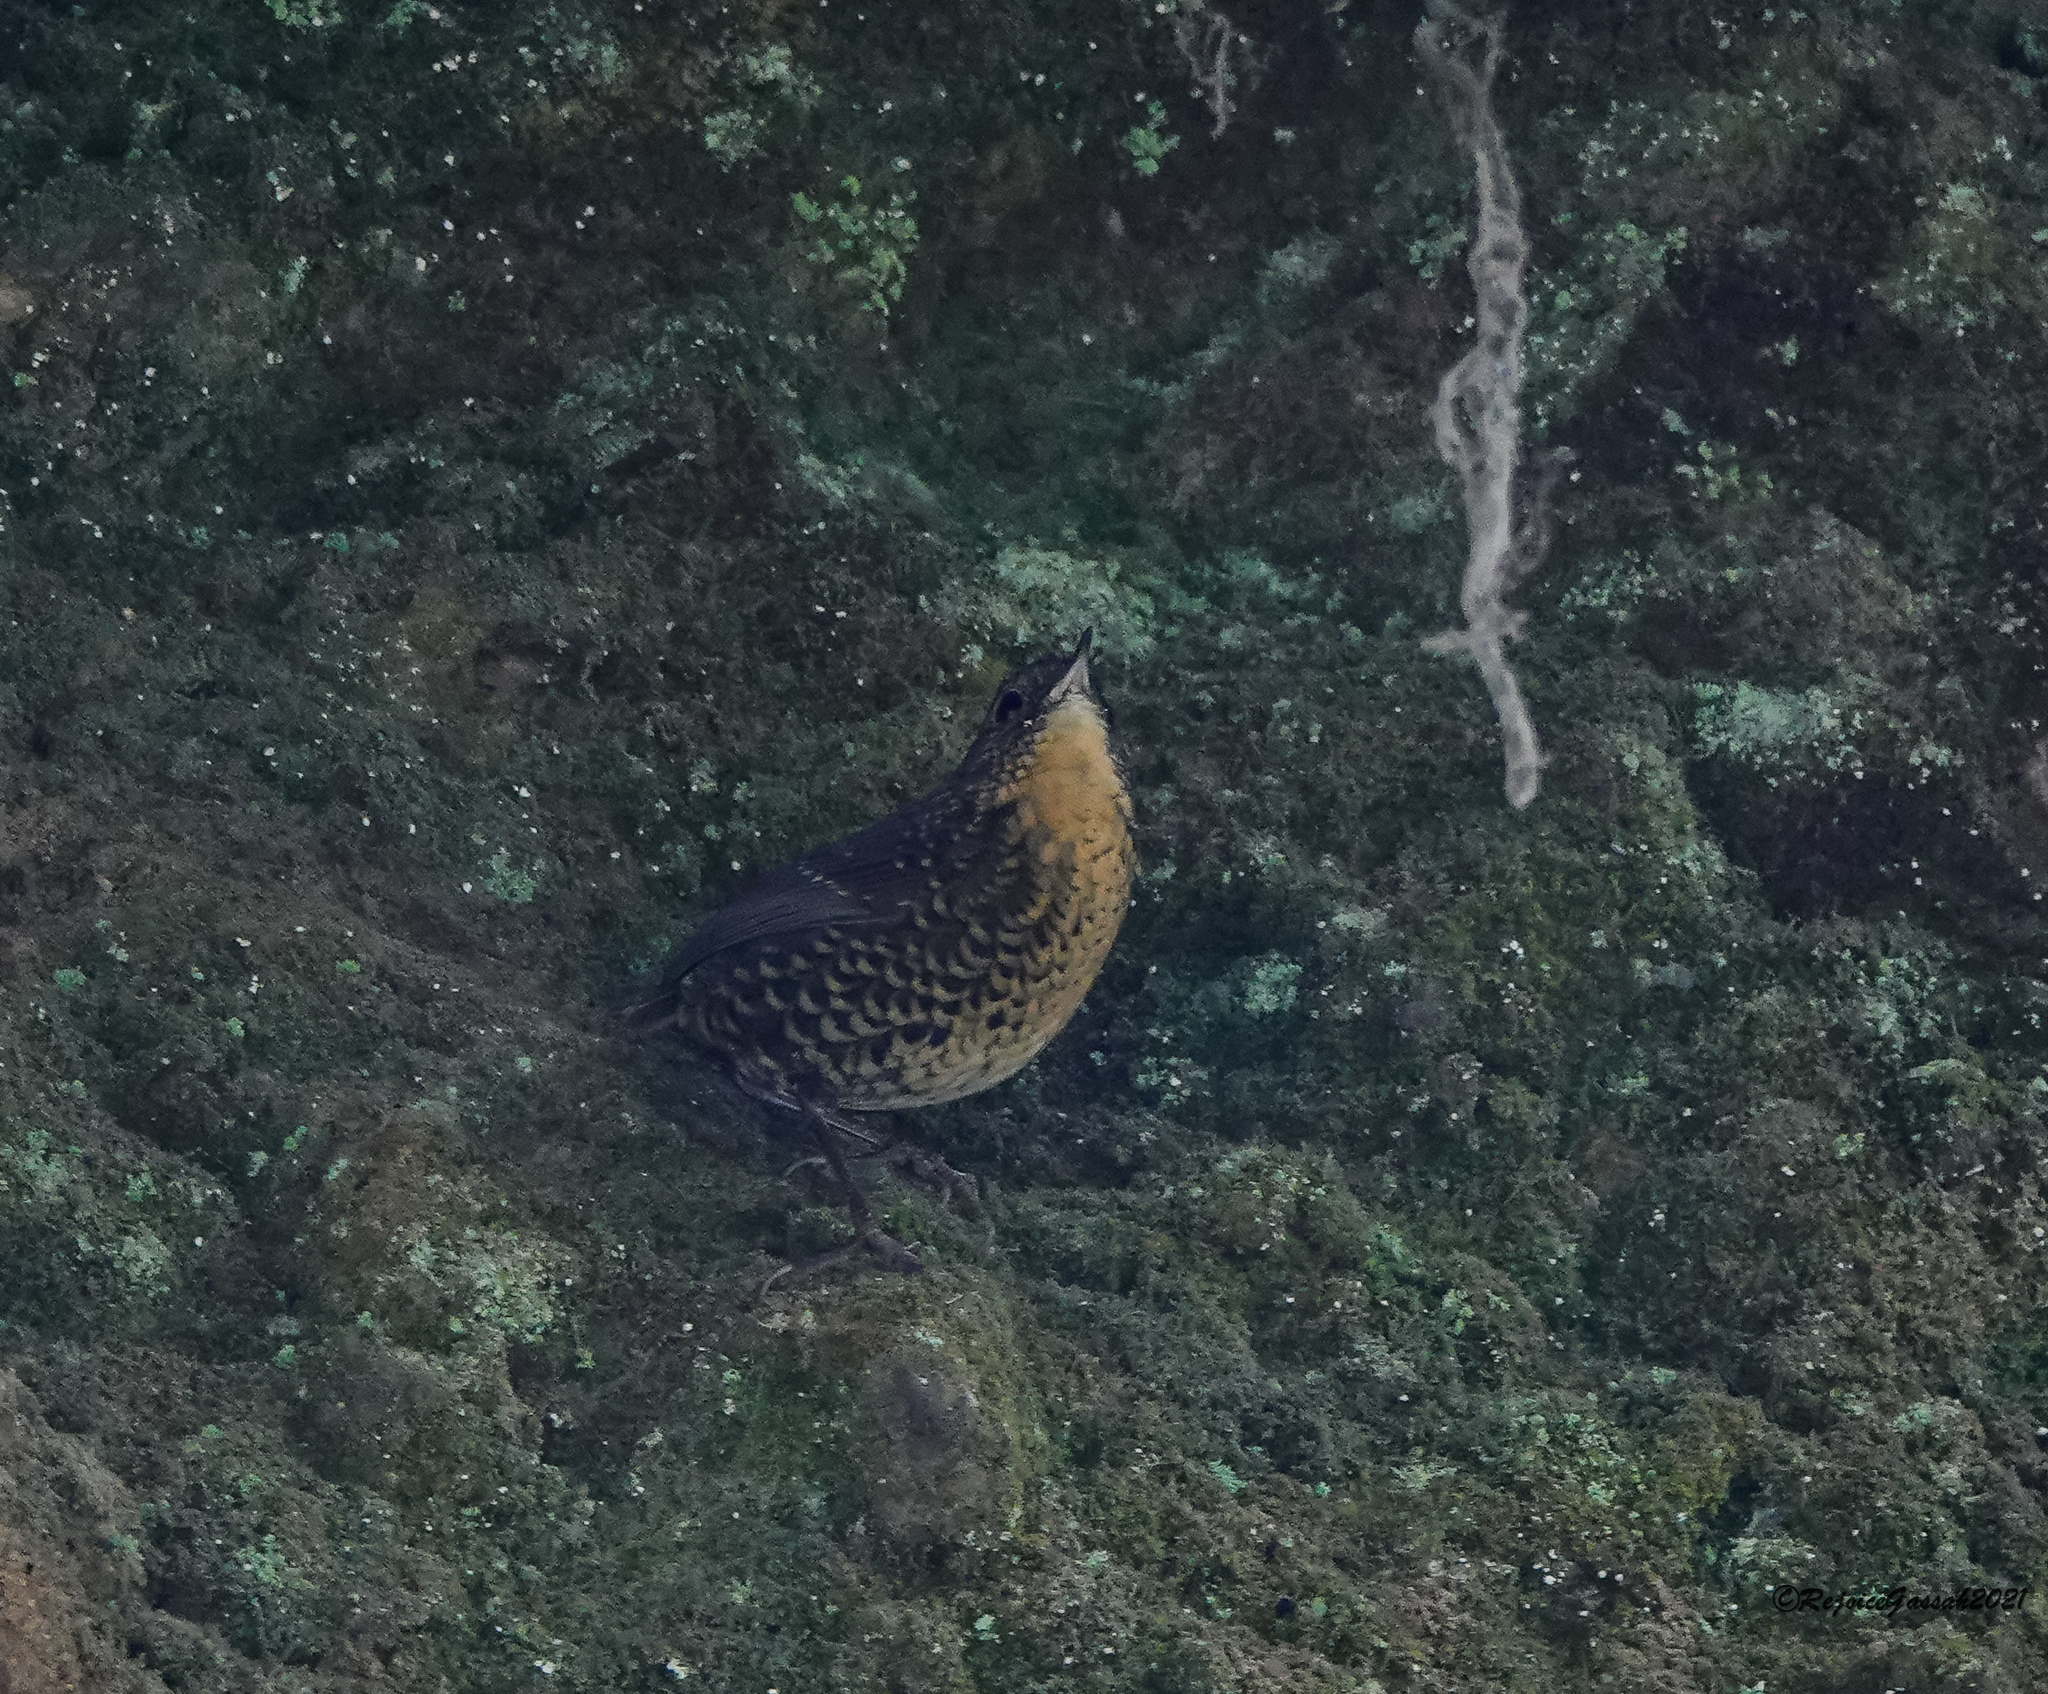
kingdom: Animalia
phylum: Chordata
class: Aves
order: Passeriformes
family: Pnoepygidae
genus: Pnoepyga
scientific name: Pnoepyga albiventer
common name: Scaly-breasted wren-babbler
